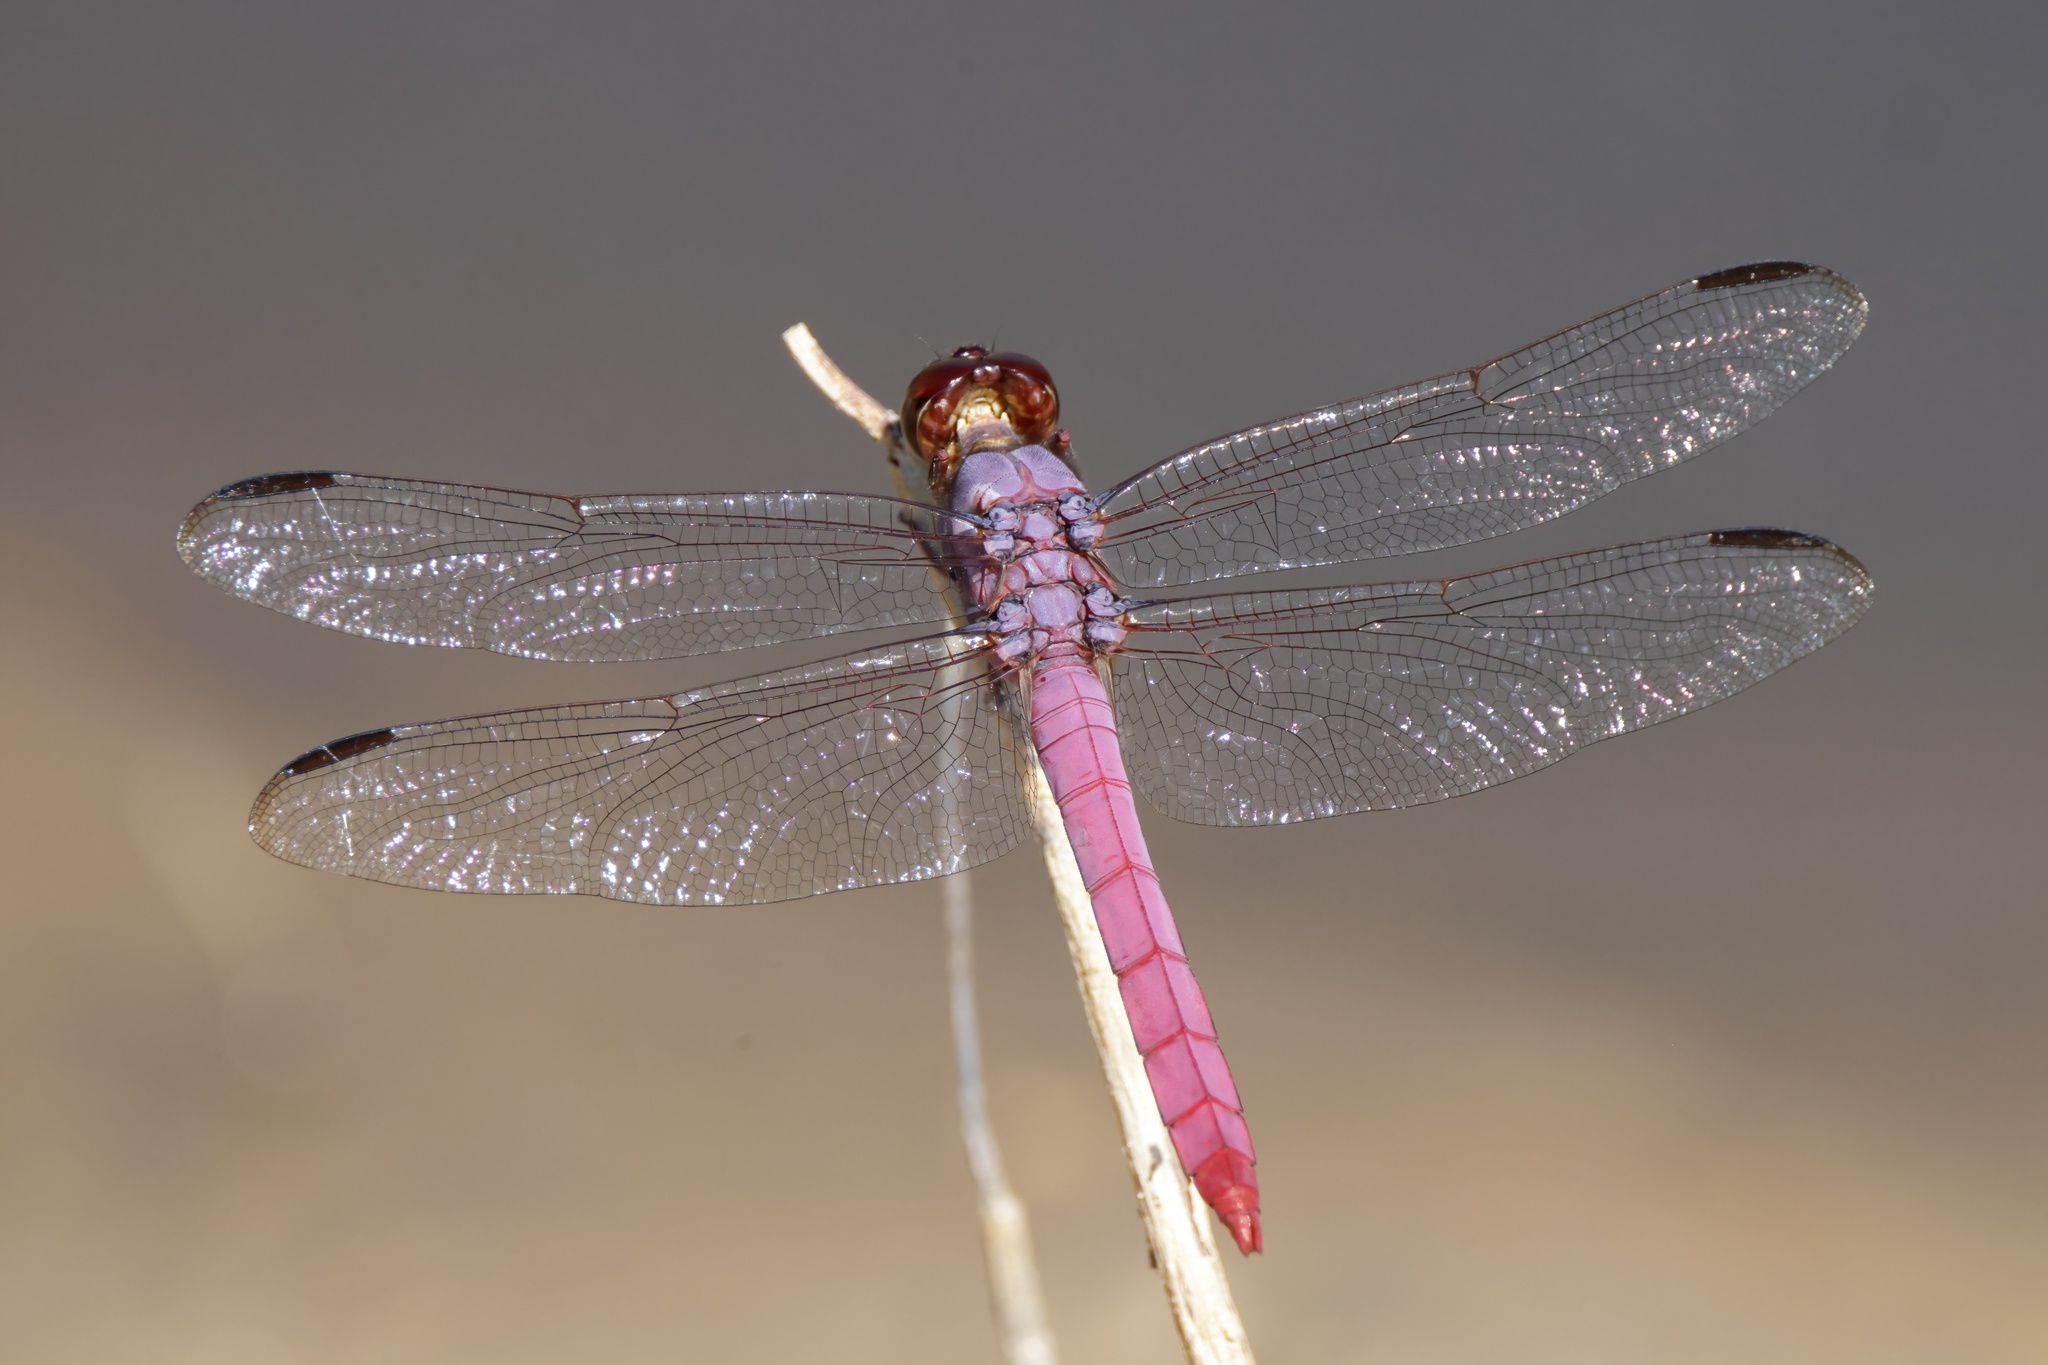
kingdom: Animalia
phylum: Arthropoda
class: Insecta
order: Odonata
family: Libellulidae
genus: Orthemis
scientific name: Orthemis ferruginea
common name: Roseate skimmer
